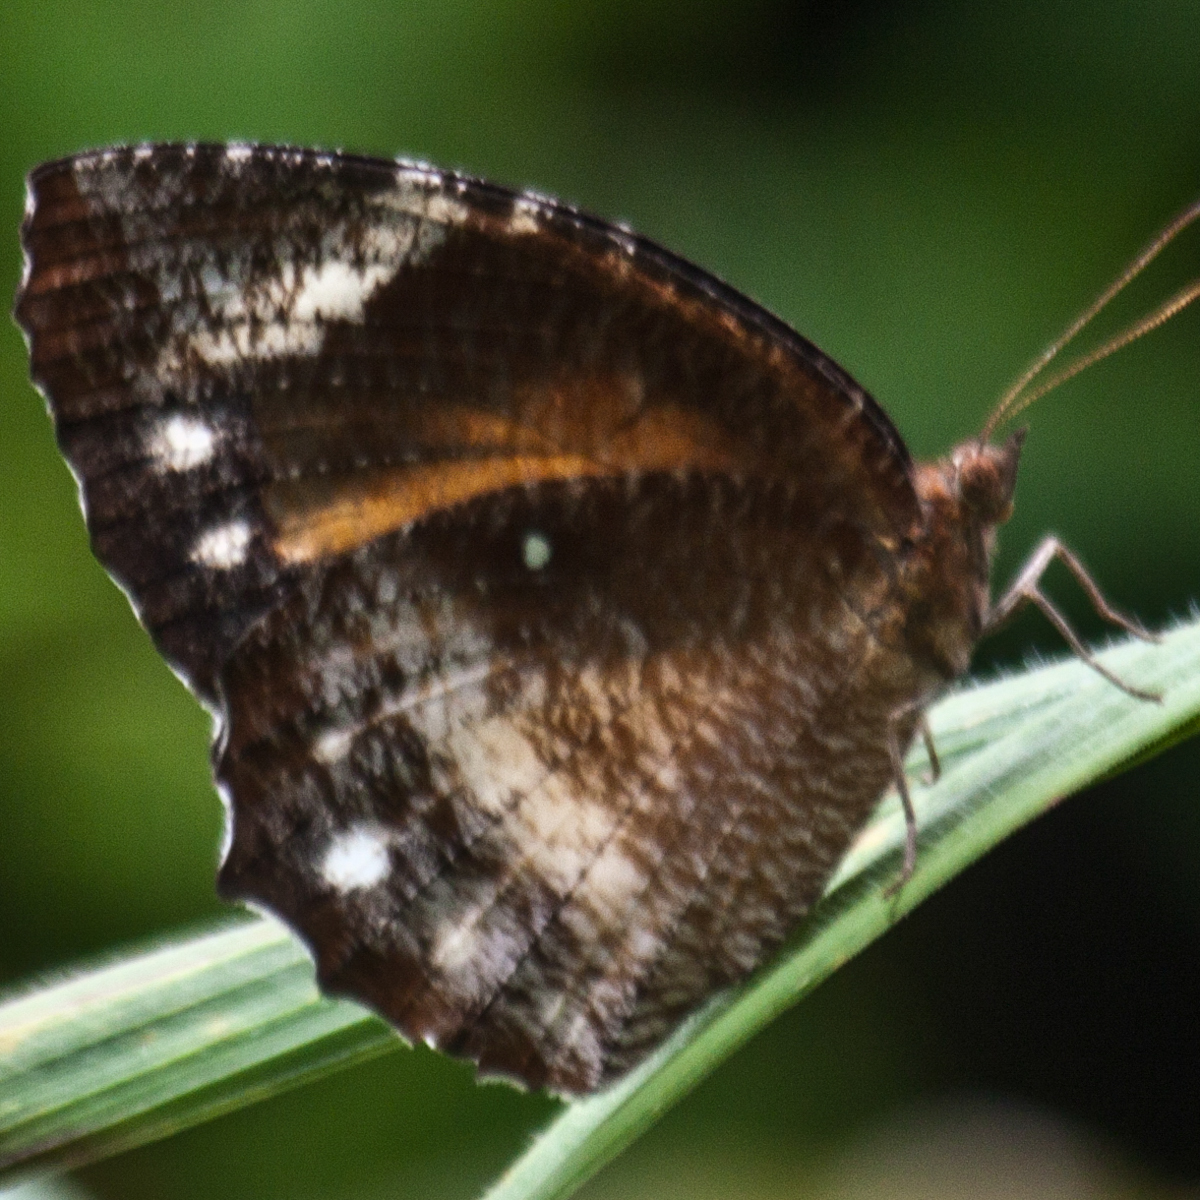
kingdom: Animalia
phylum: Arthropoda
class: Insecta
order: Lepidoptera
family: Nymphalidae
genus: Elymnias
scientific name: Elymnias hypermnestra
